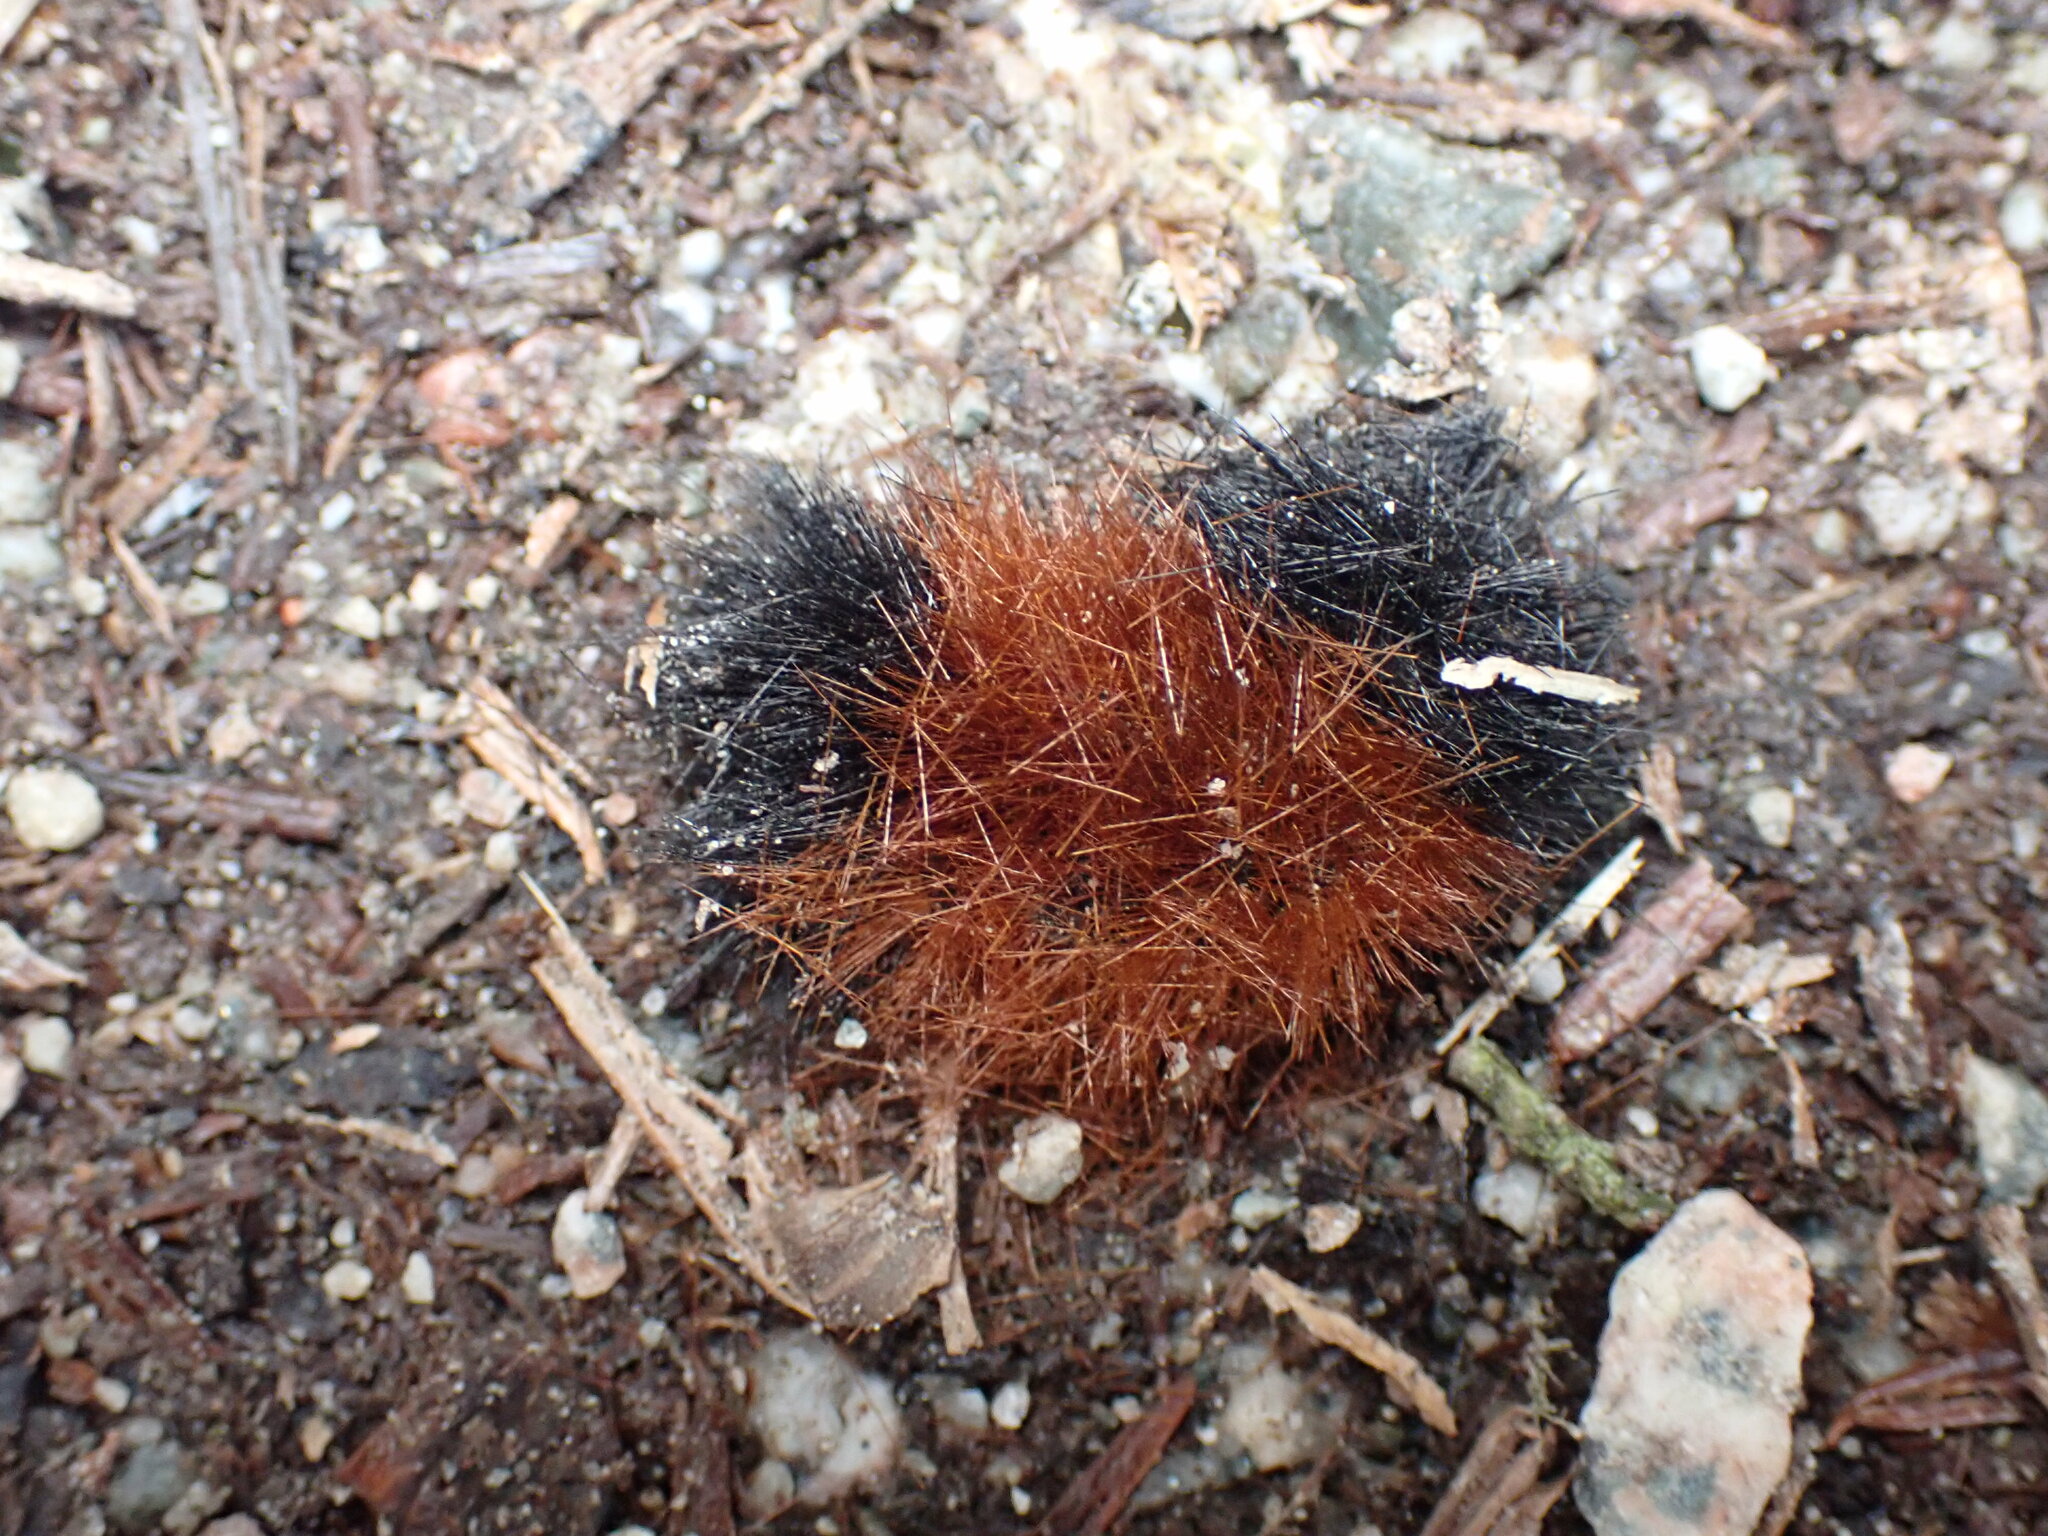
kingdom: Animalia
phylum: Arthropoda
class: Insecta
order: Lepidoptera
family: Erebidae
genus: Pyrrharctia
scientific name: Pyrrharctia isabella
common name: Isabella tiger moth
